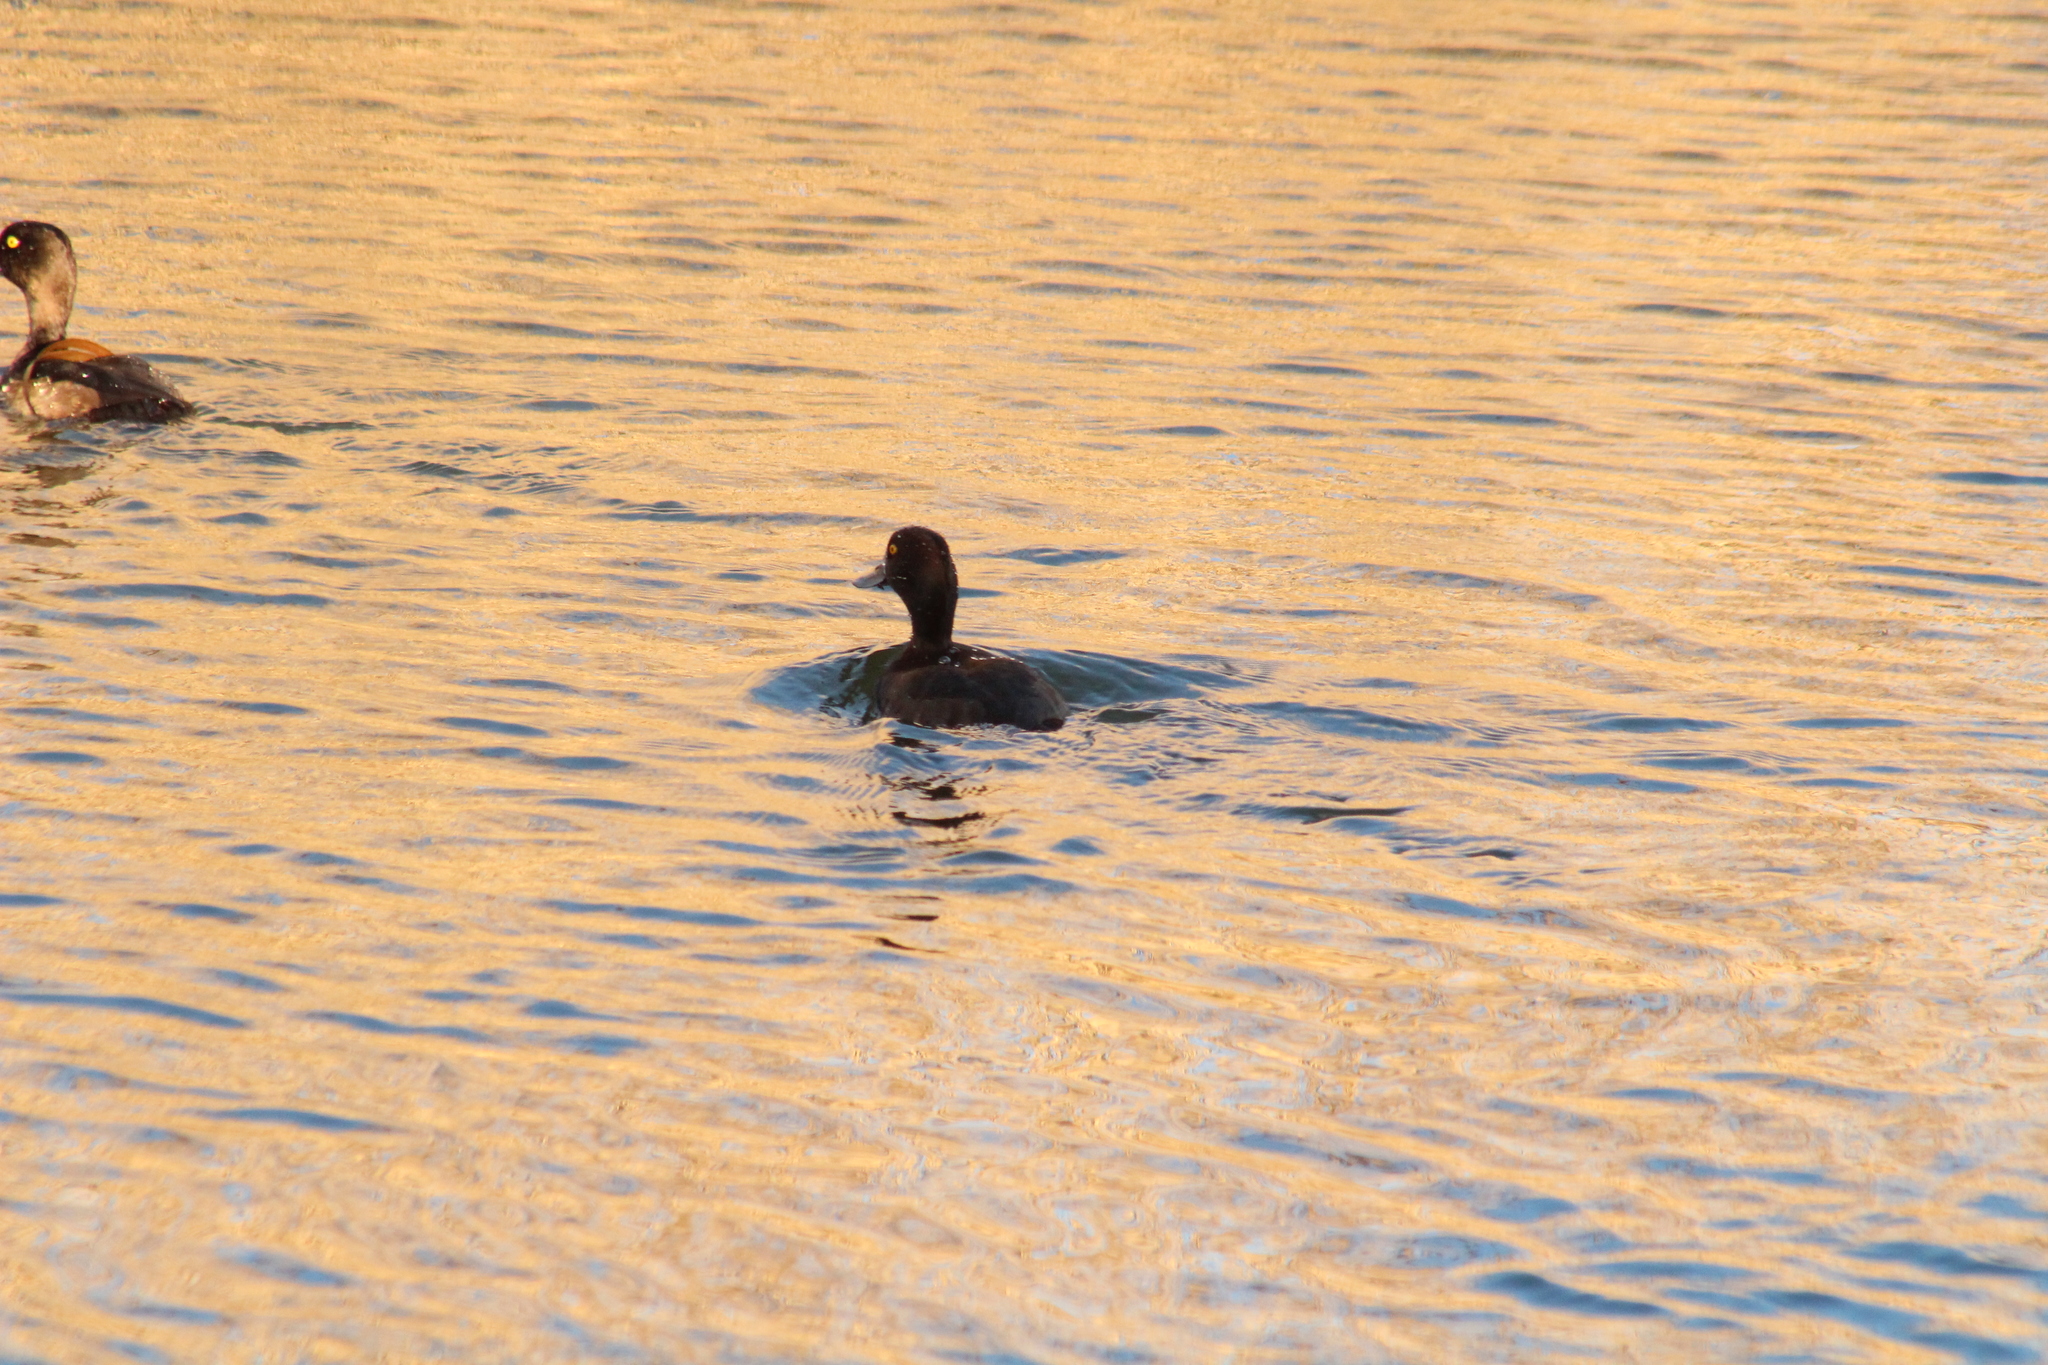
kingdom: Animalia
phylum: Chordata
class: Aves
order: Anseriformes
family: Anatidae
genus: Aythya
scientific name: Aythya fuligula
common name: Tufted duck
